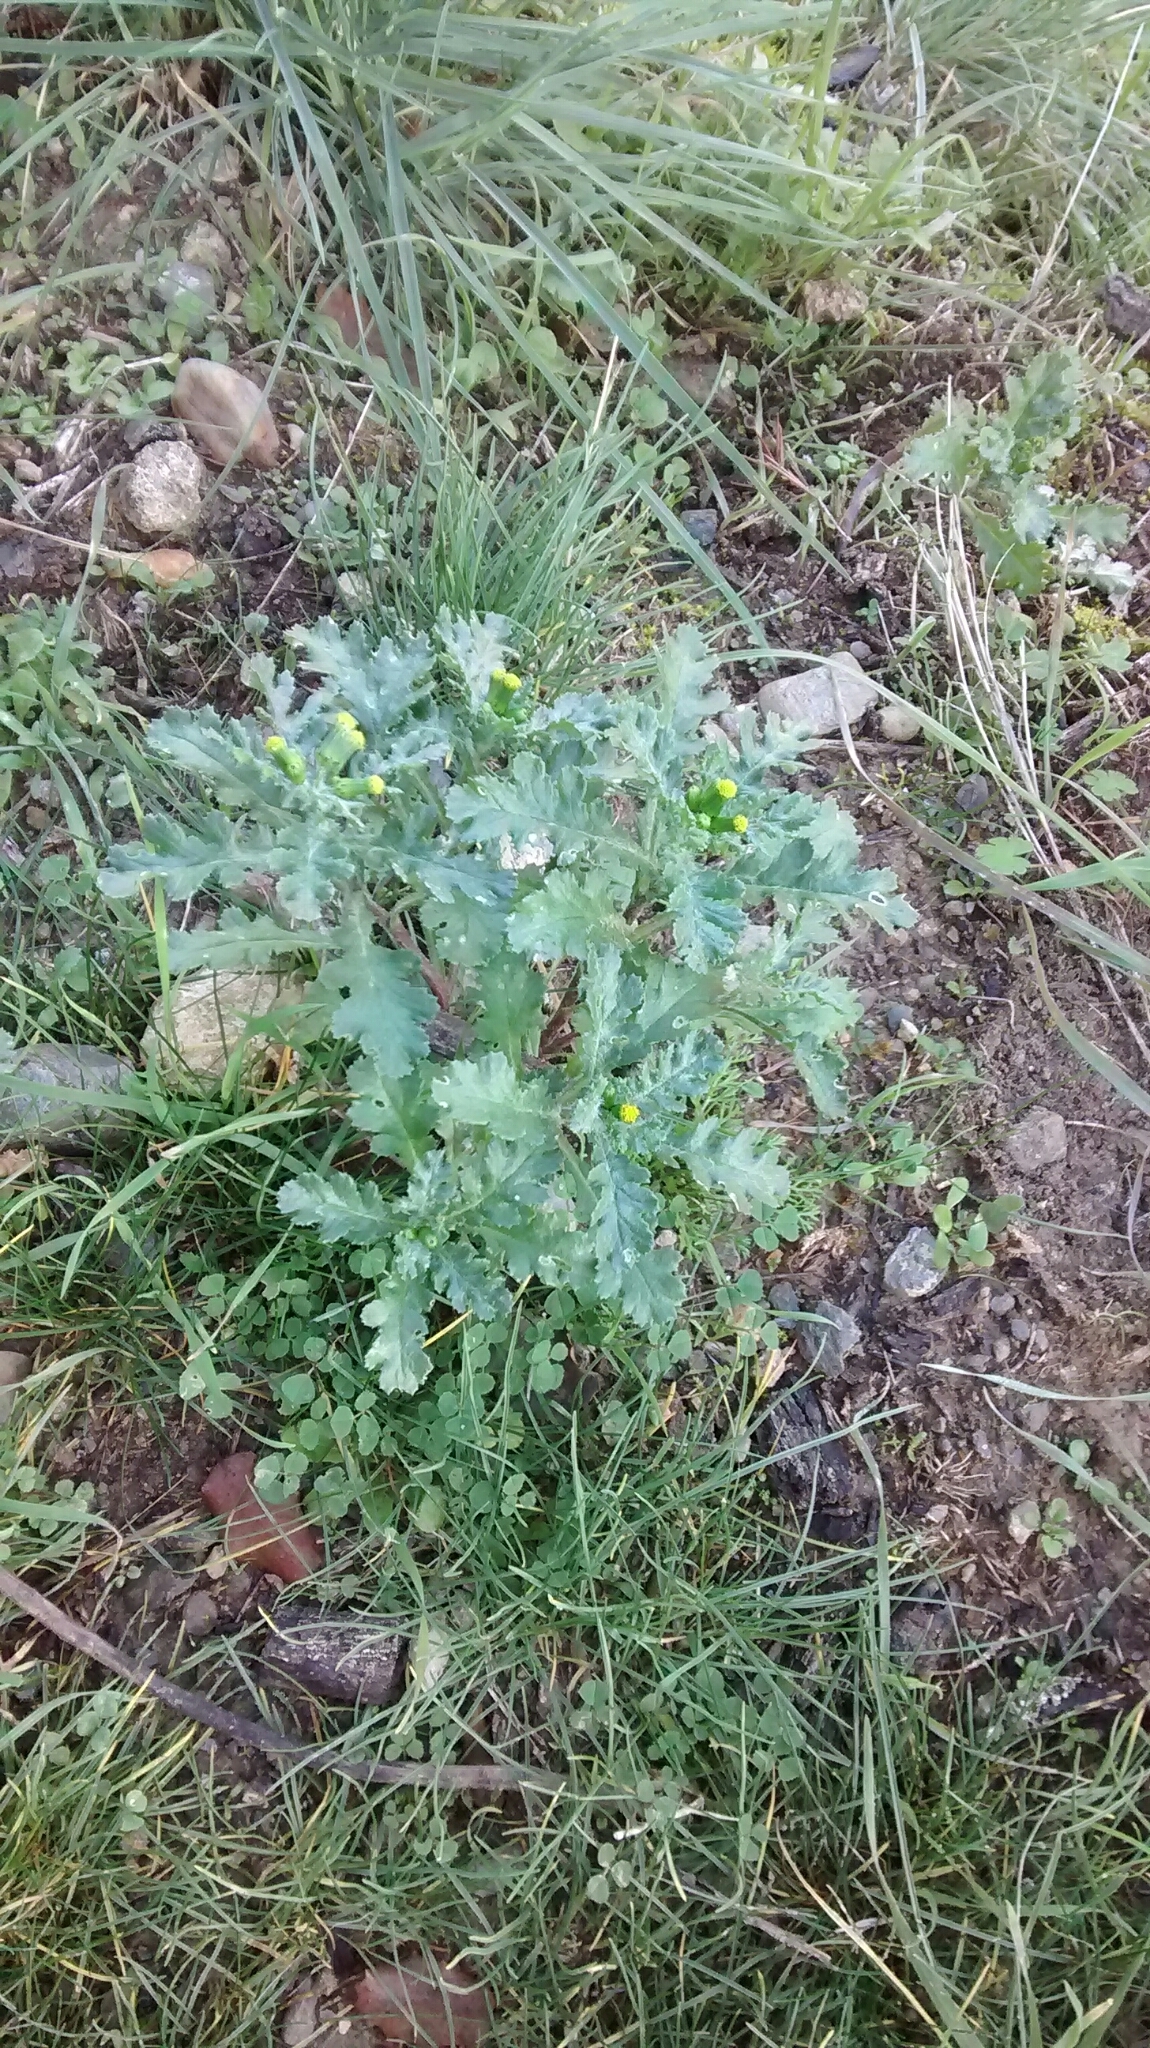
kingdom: Plantae
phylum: Tracheophyta
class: Magnoliopsida
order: Asterales
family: Asteraceae
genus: Senecio
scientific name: Senecio vulgaris
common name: Old-man-in-the-spring
